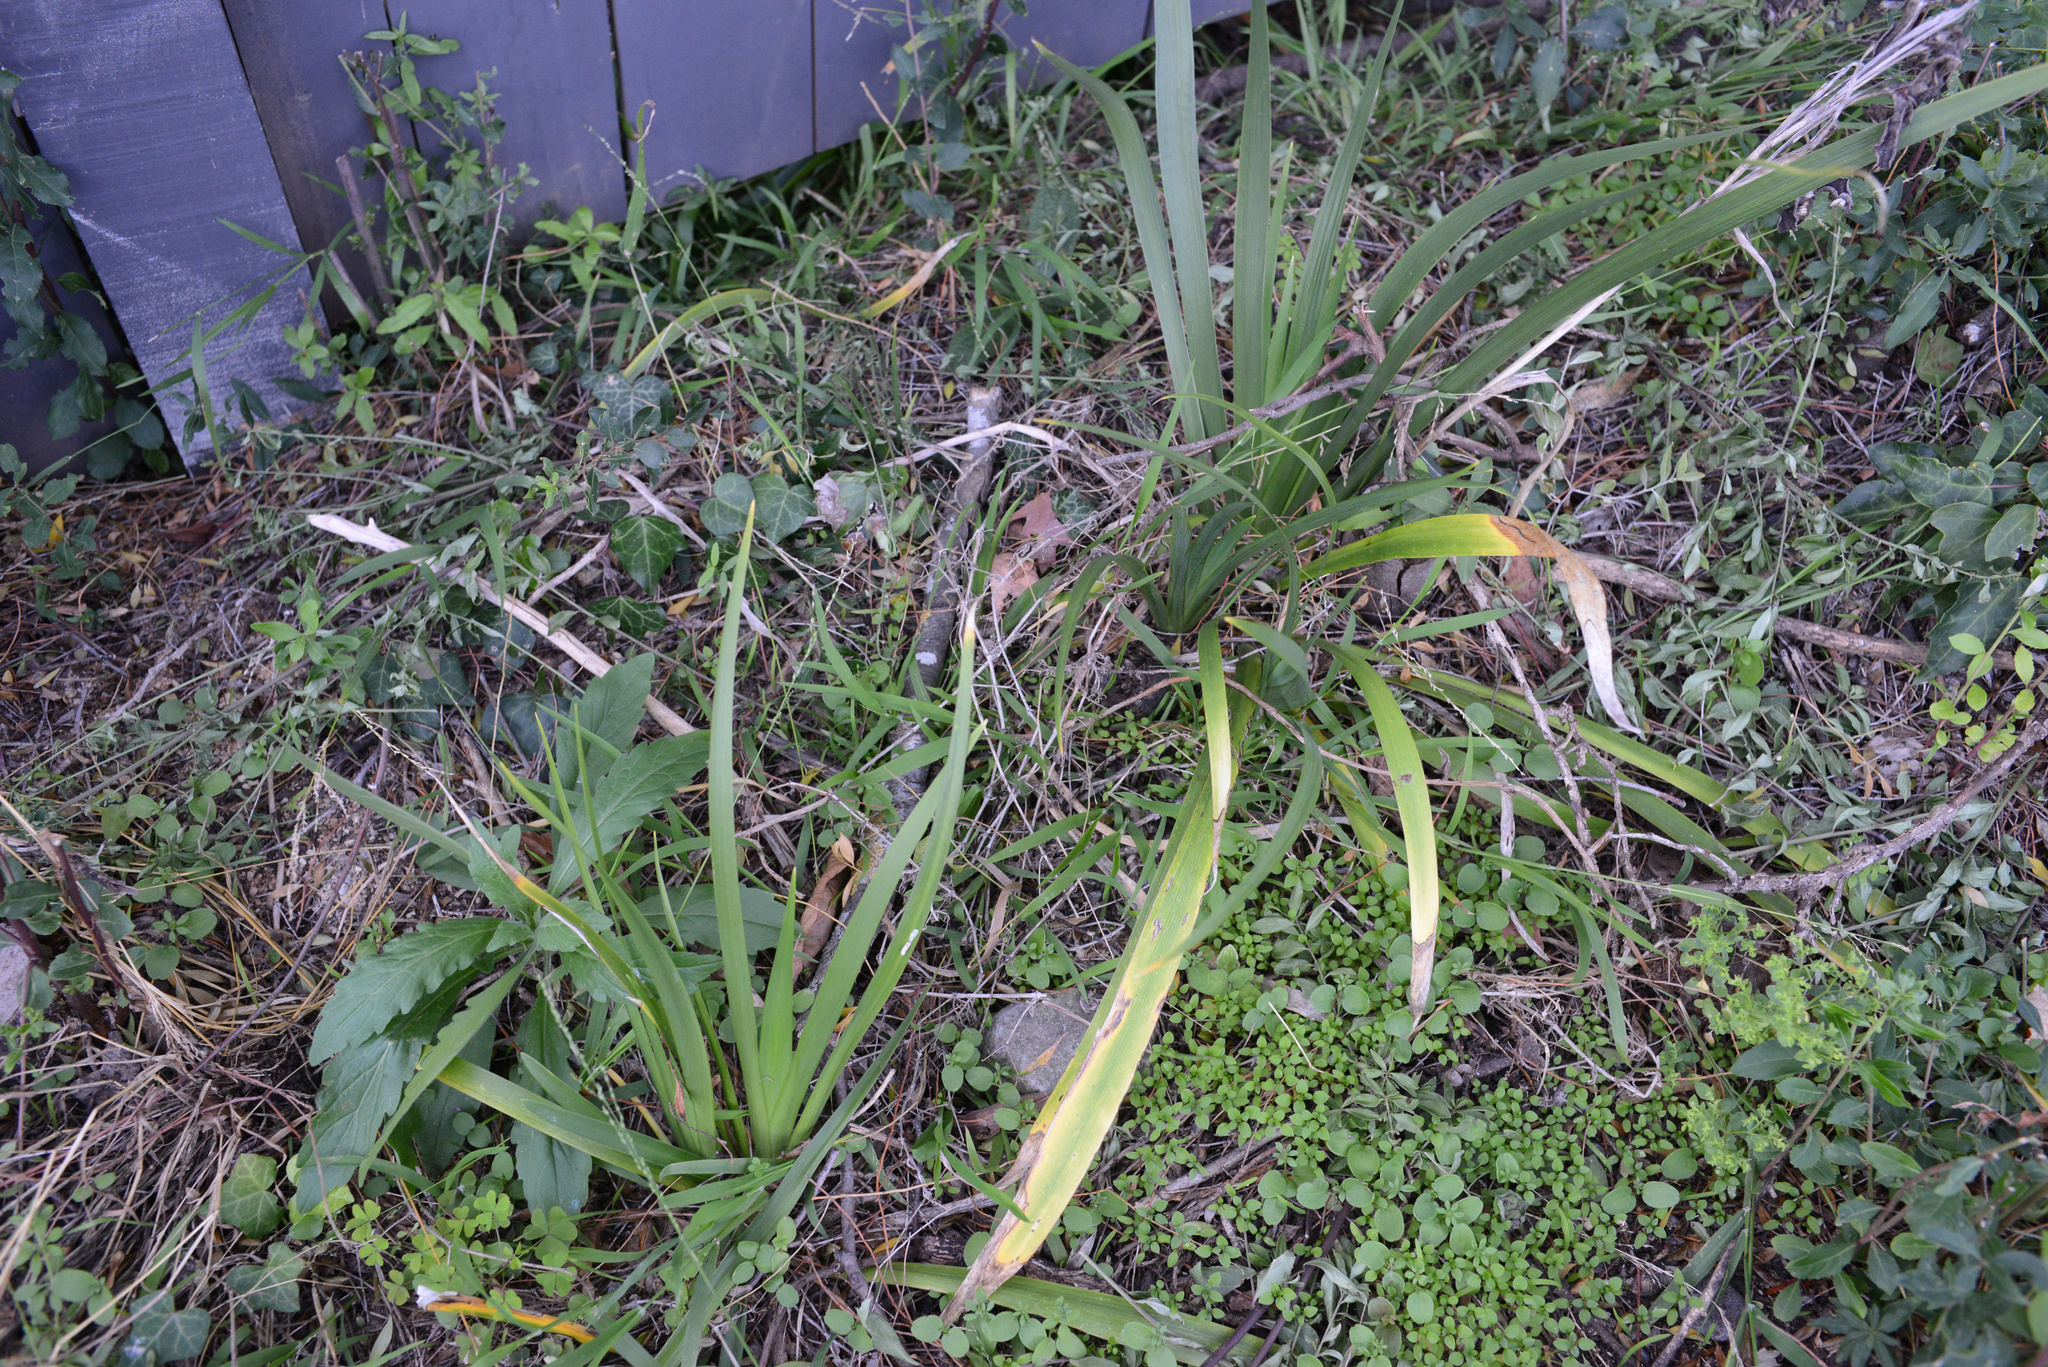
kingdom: Plantae
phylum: Tracheophyta
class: Liliopsida
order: Asparagales
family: Iridaceae
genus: Iris
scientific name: Iris foetidissima
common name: Stinking iris
